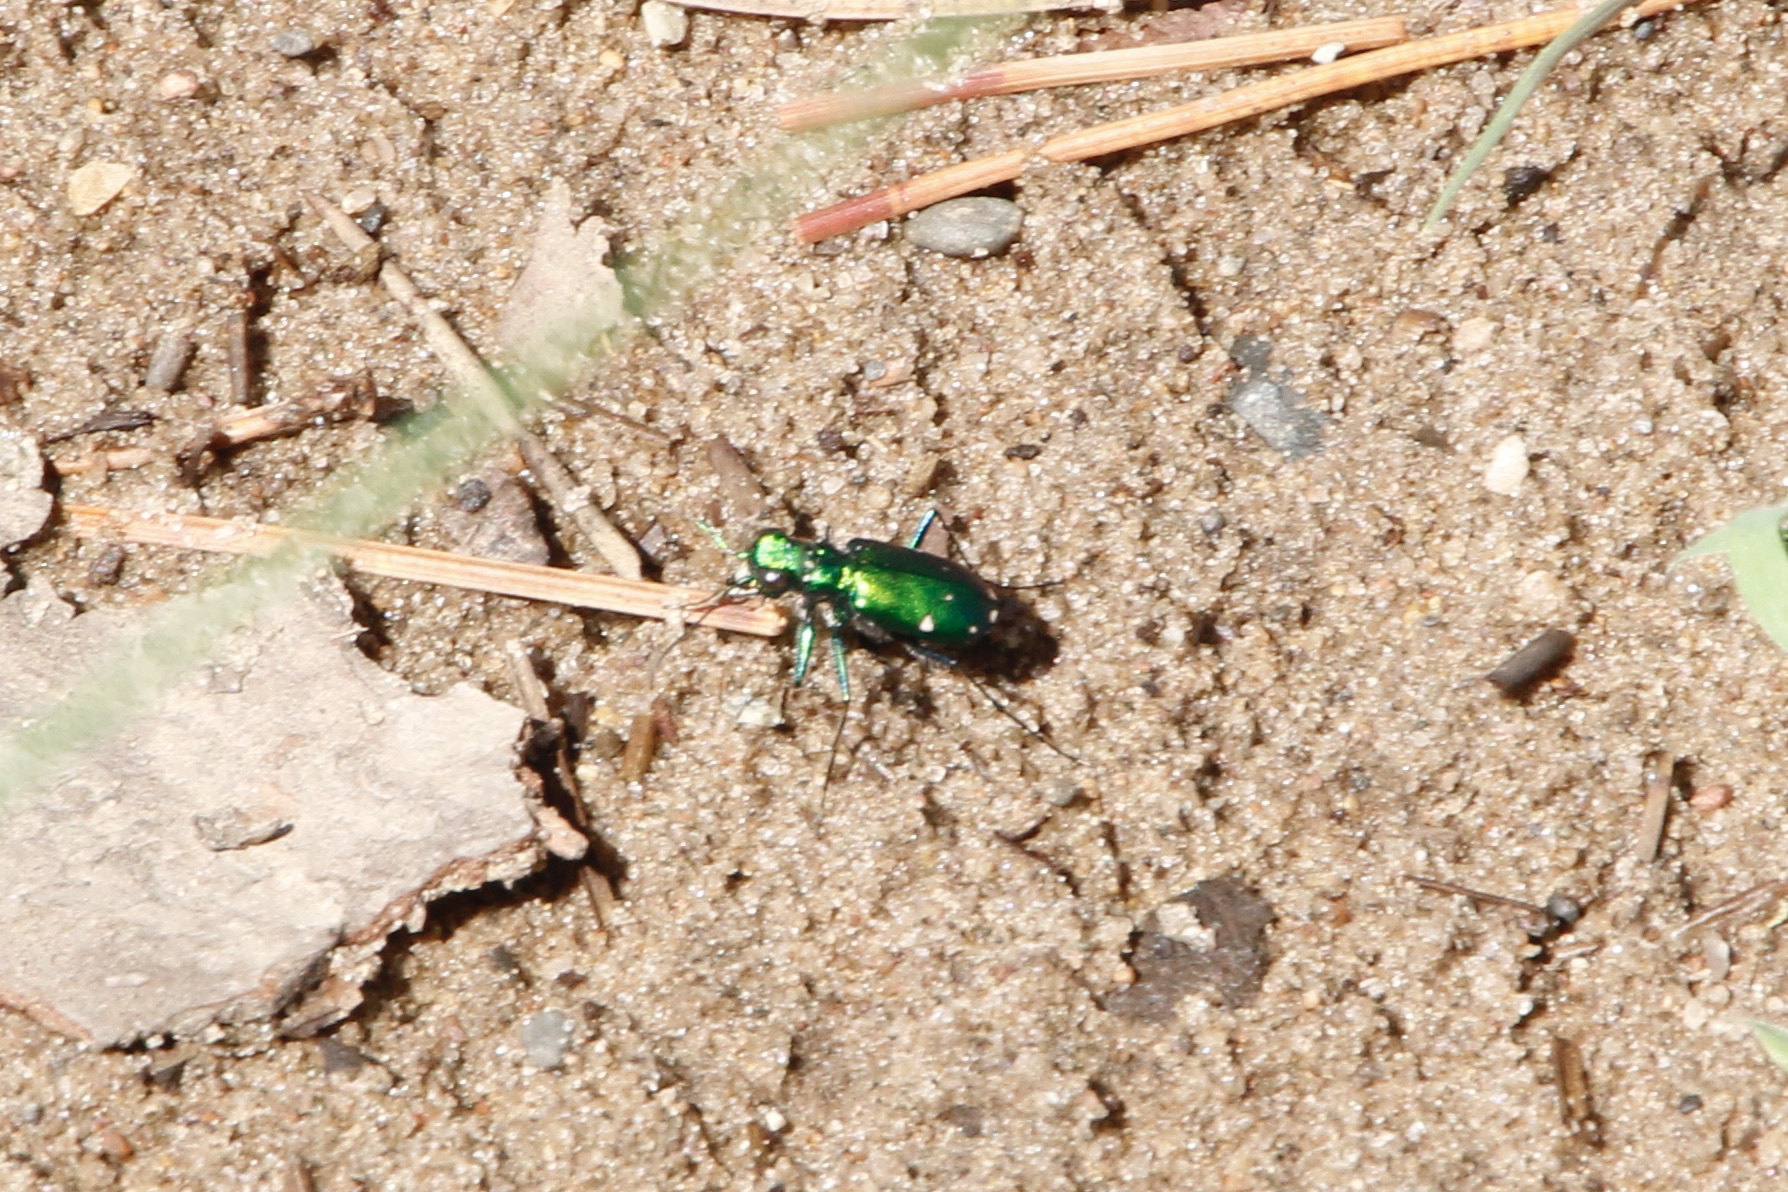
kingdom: Animalia
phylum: Arthropoda
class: Insecta
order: Coleoptera
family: Carabidae
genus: Cicindela
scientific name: Cicindela sexguttata
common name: Six-spotted tiger beetle
